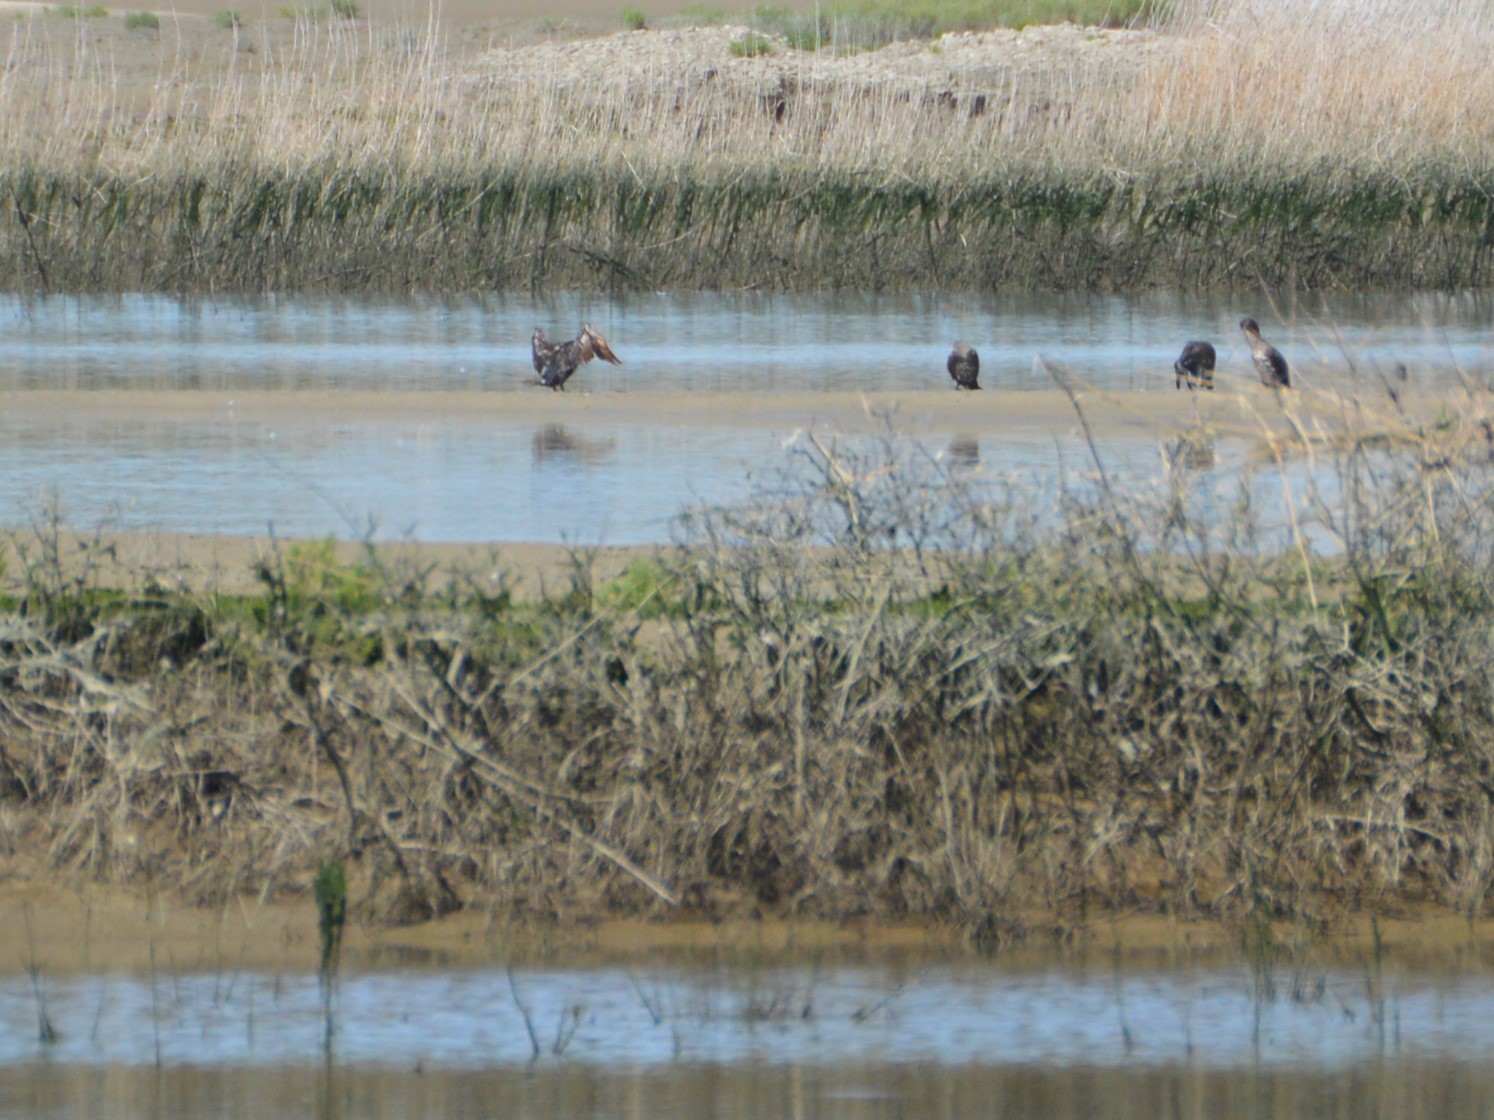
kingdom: Animalia
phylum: Chordata
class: Aves
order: Suliformes
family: Phalacrocoracidae
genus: Phalacrocorax
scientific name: Phalacrocorax carbo
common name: Great cormorant
